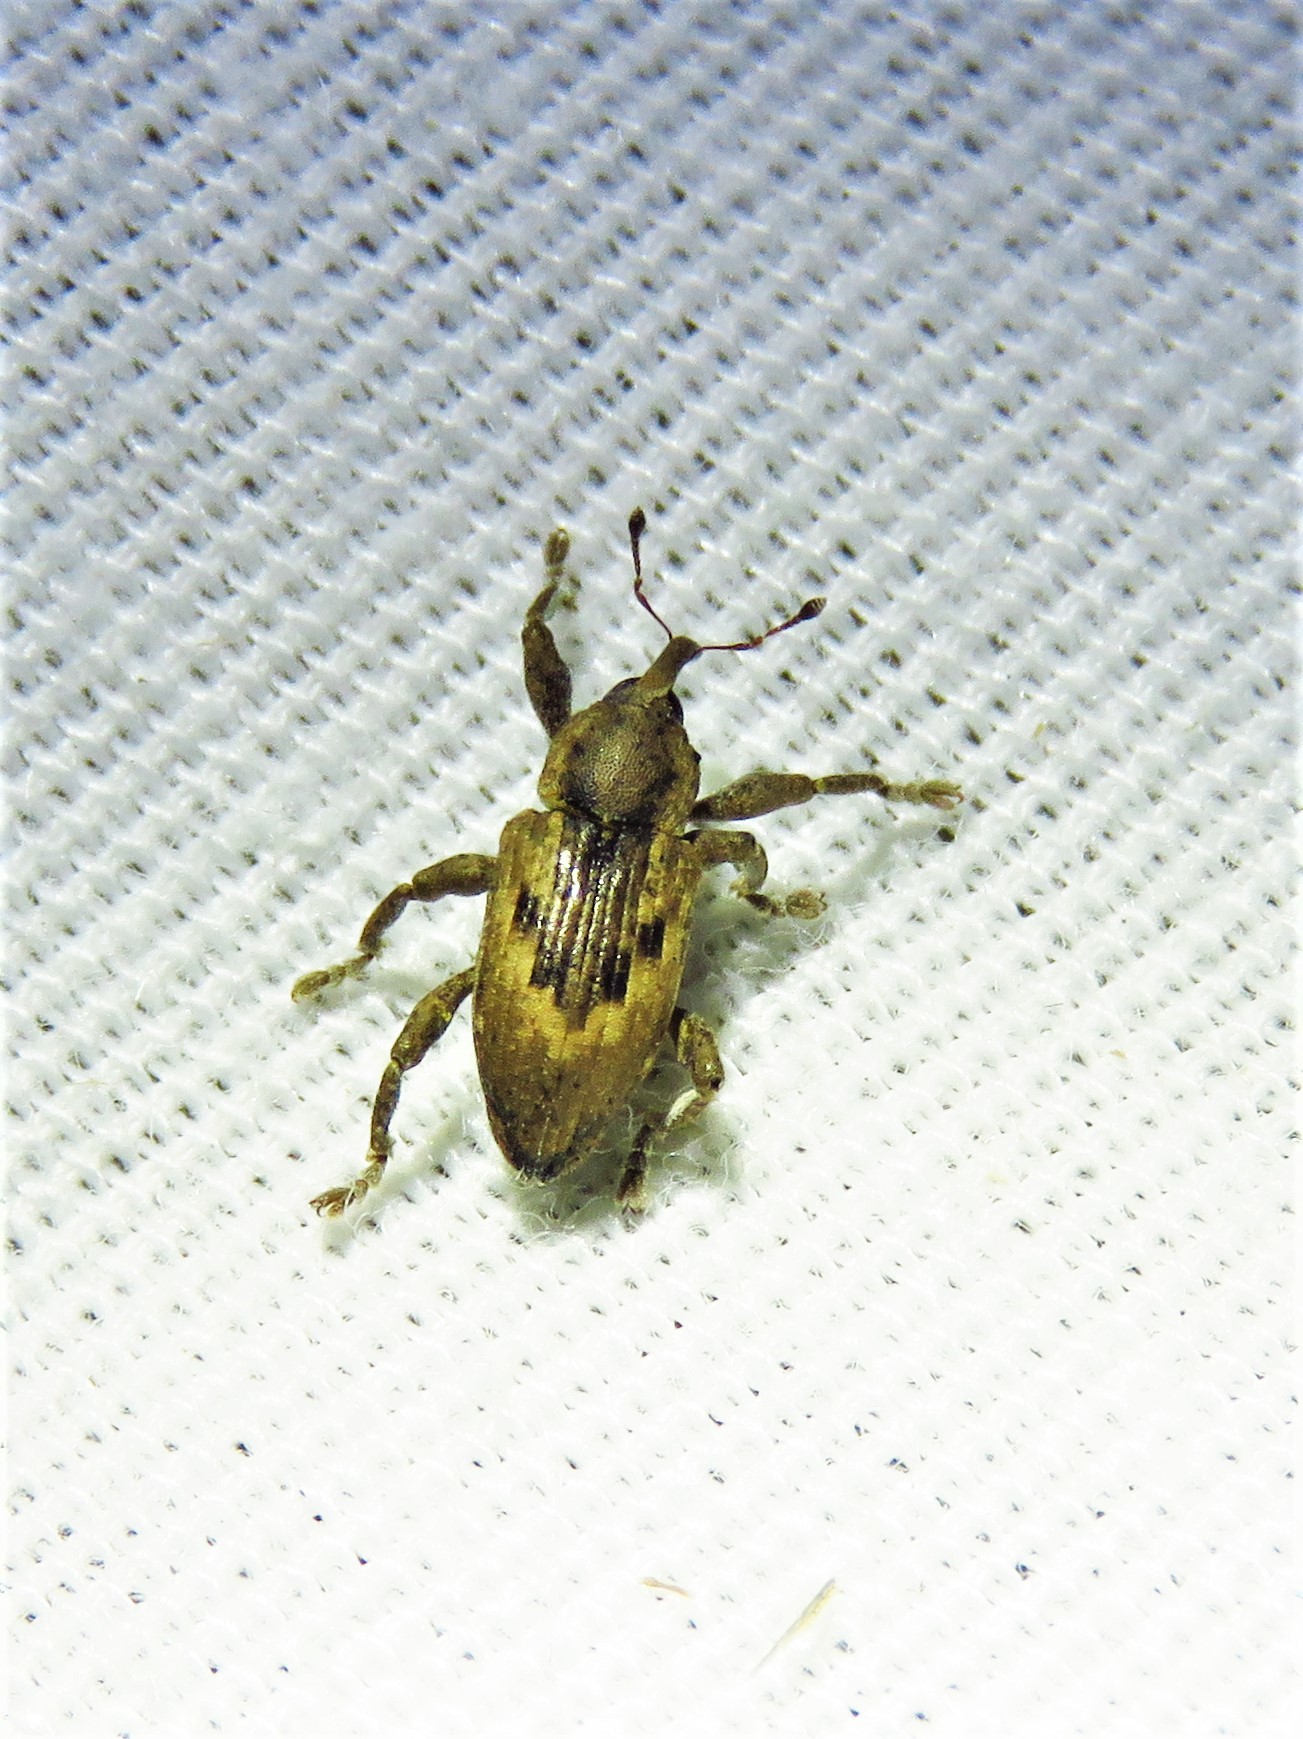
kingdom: Animalia
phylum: Arthropoda
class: Insecta
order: Coleoptera
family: Brachyceridae
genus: Notiodes
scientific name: Notiodes limatulus
